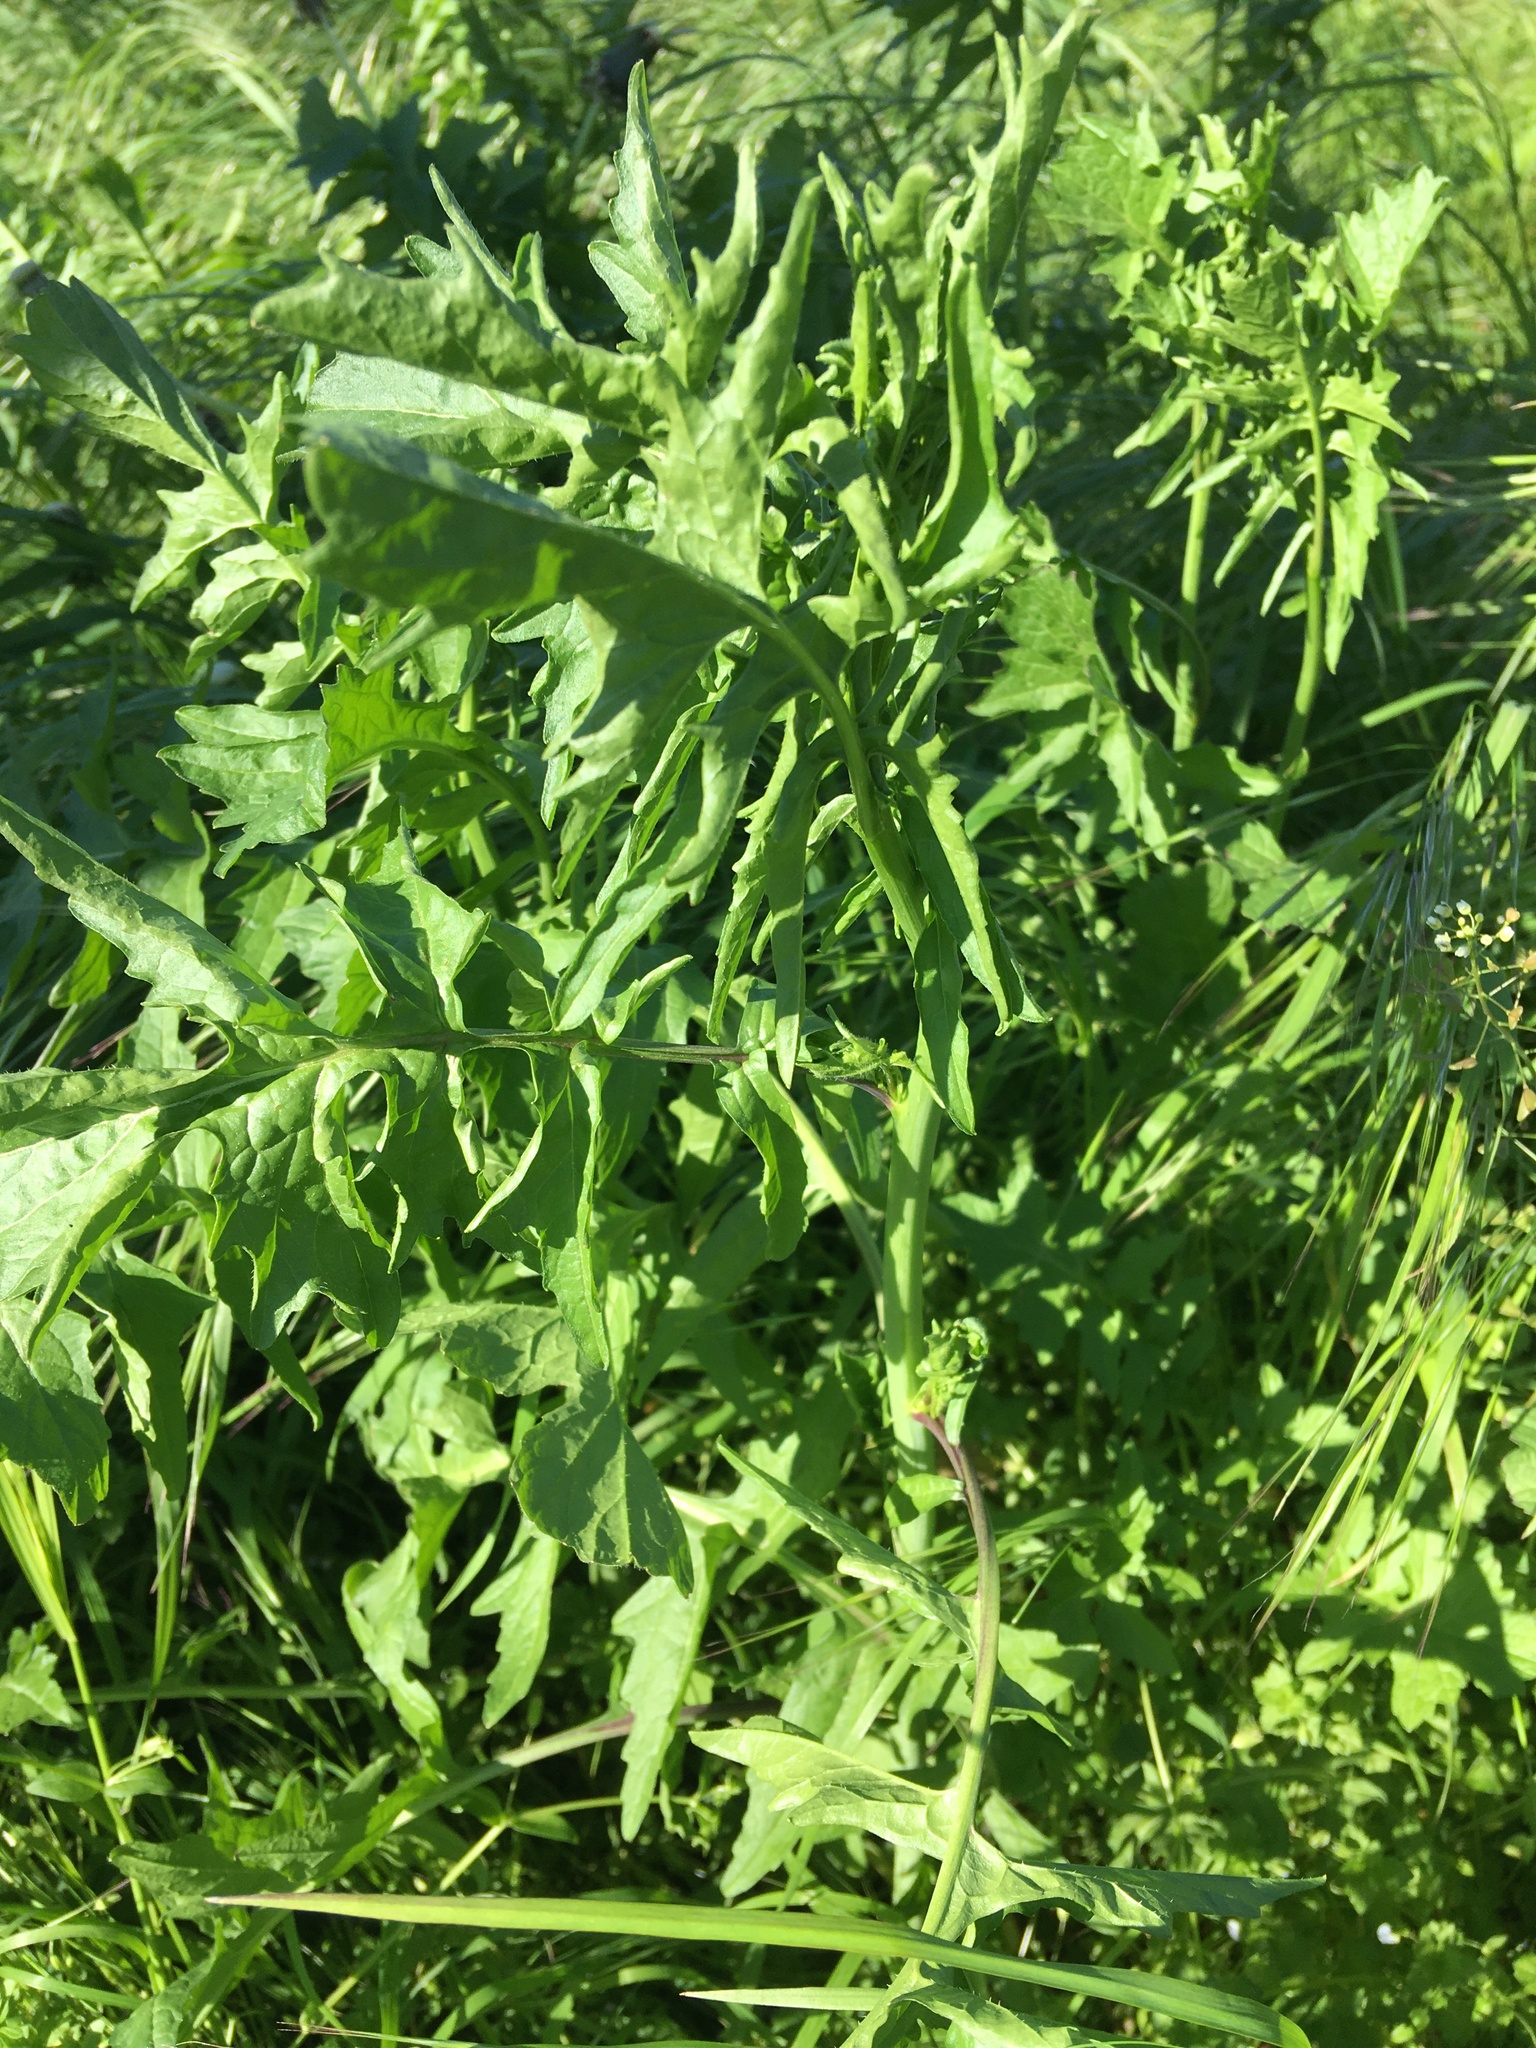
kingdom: Plantae
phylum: Tracheophyta
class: Magnoliopsida
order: Brassicales
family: Brassicaceae
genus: Sisymbrium
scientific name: Sisymbrium officinale
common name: Hedge mustard
